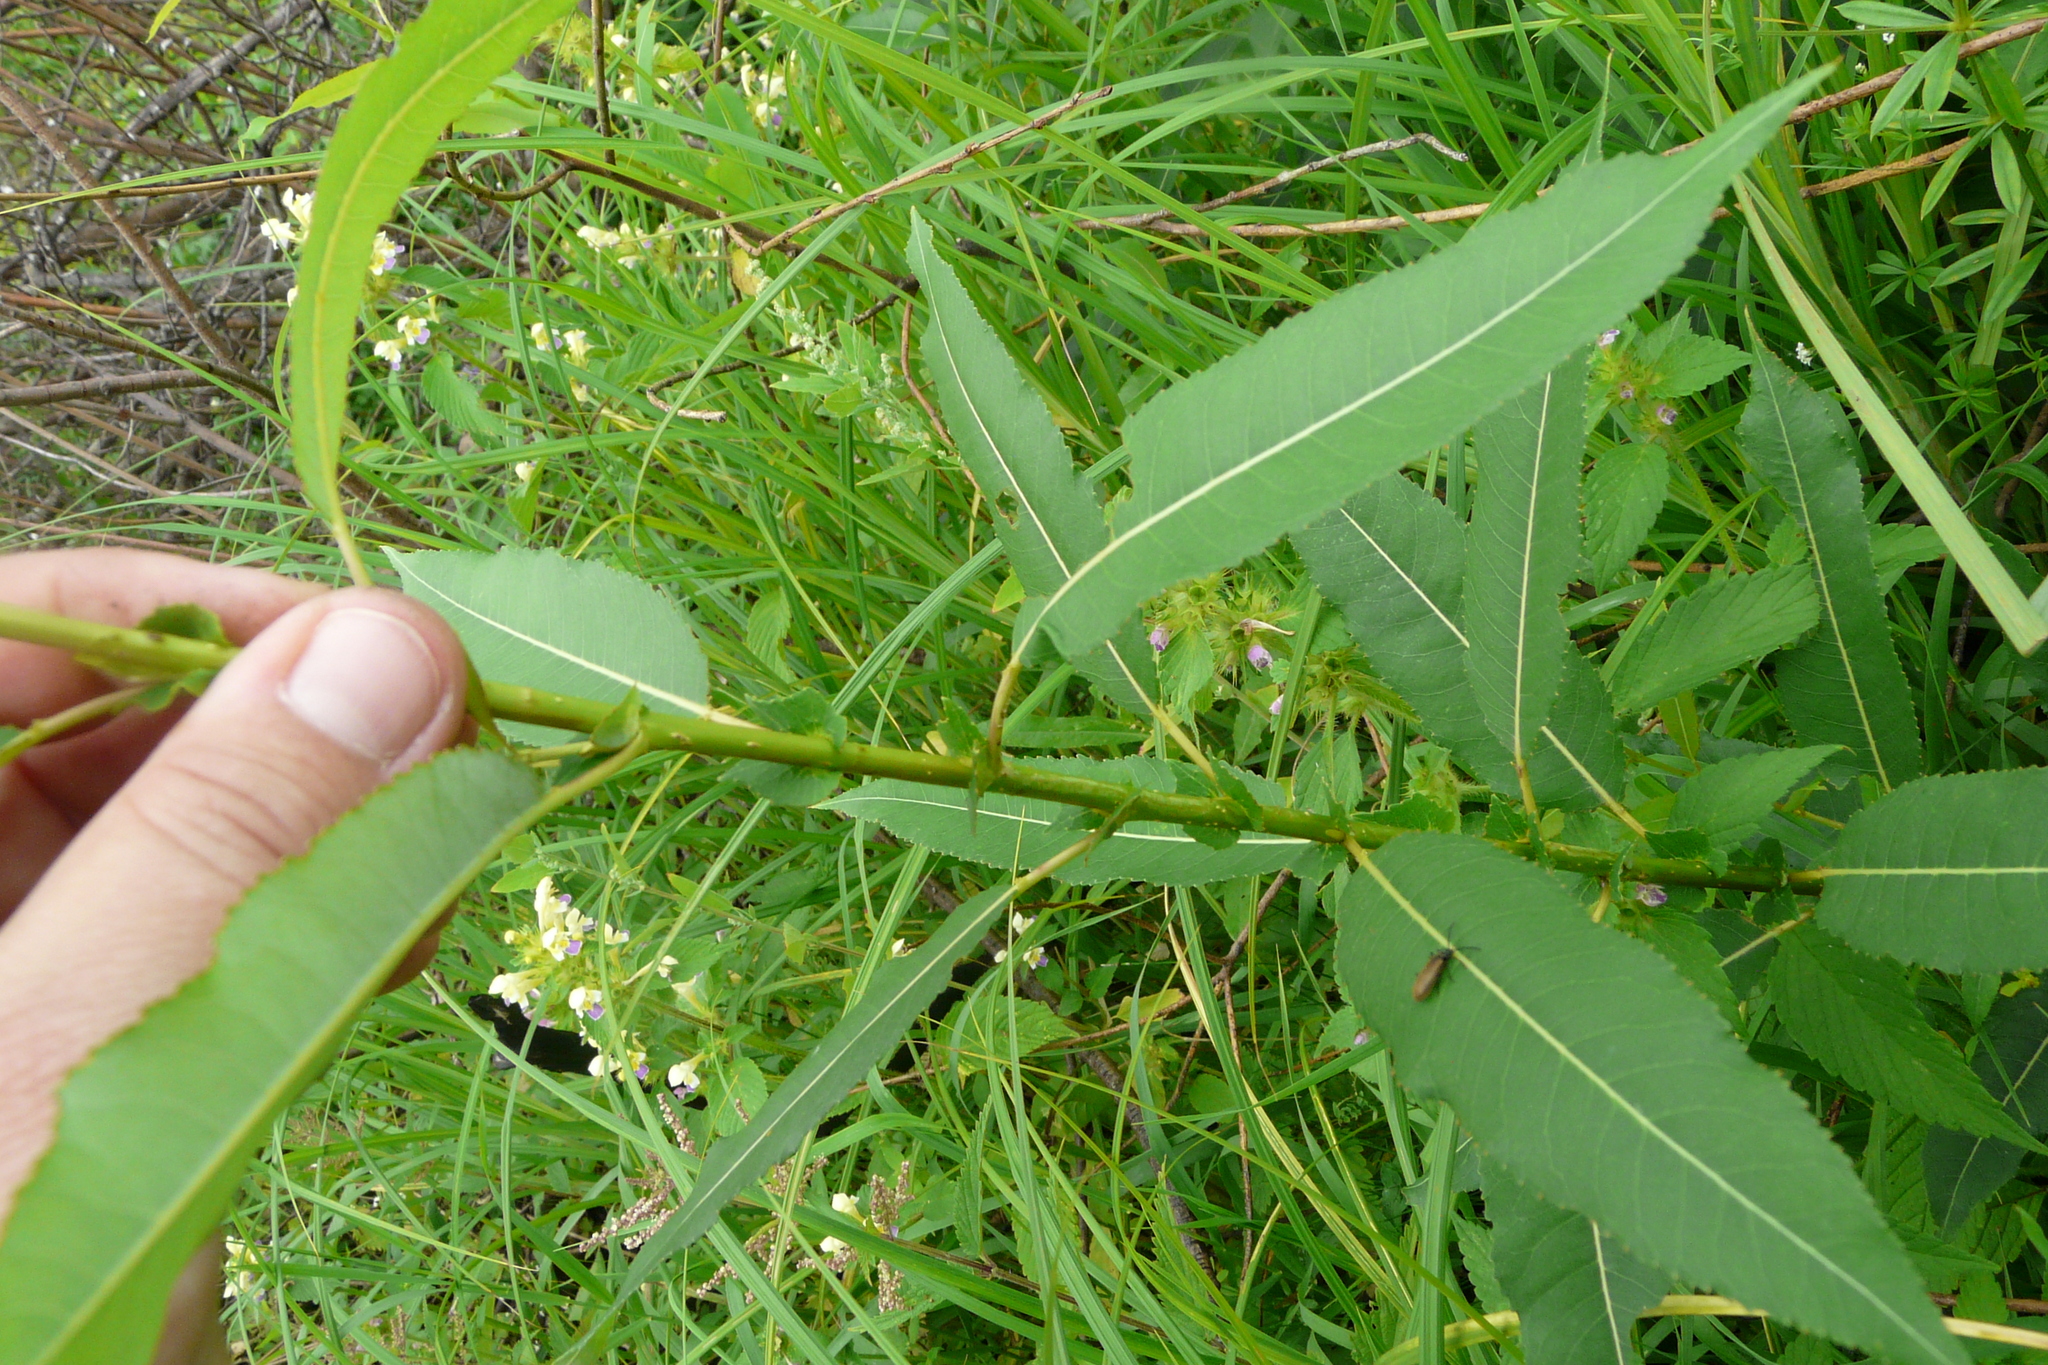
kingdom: Plantae
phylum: Tracheophyta
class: Magnoliopsida
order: Malpighiales
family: Salicaceae
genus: Salix
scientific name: Salix triandra
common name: Almond willow
